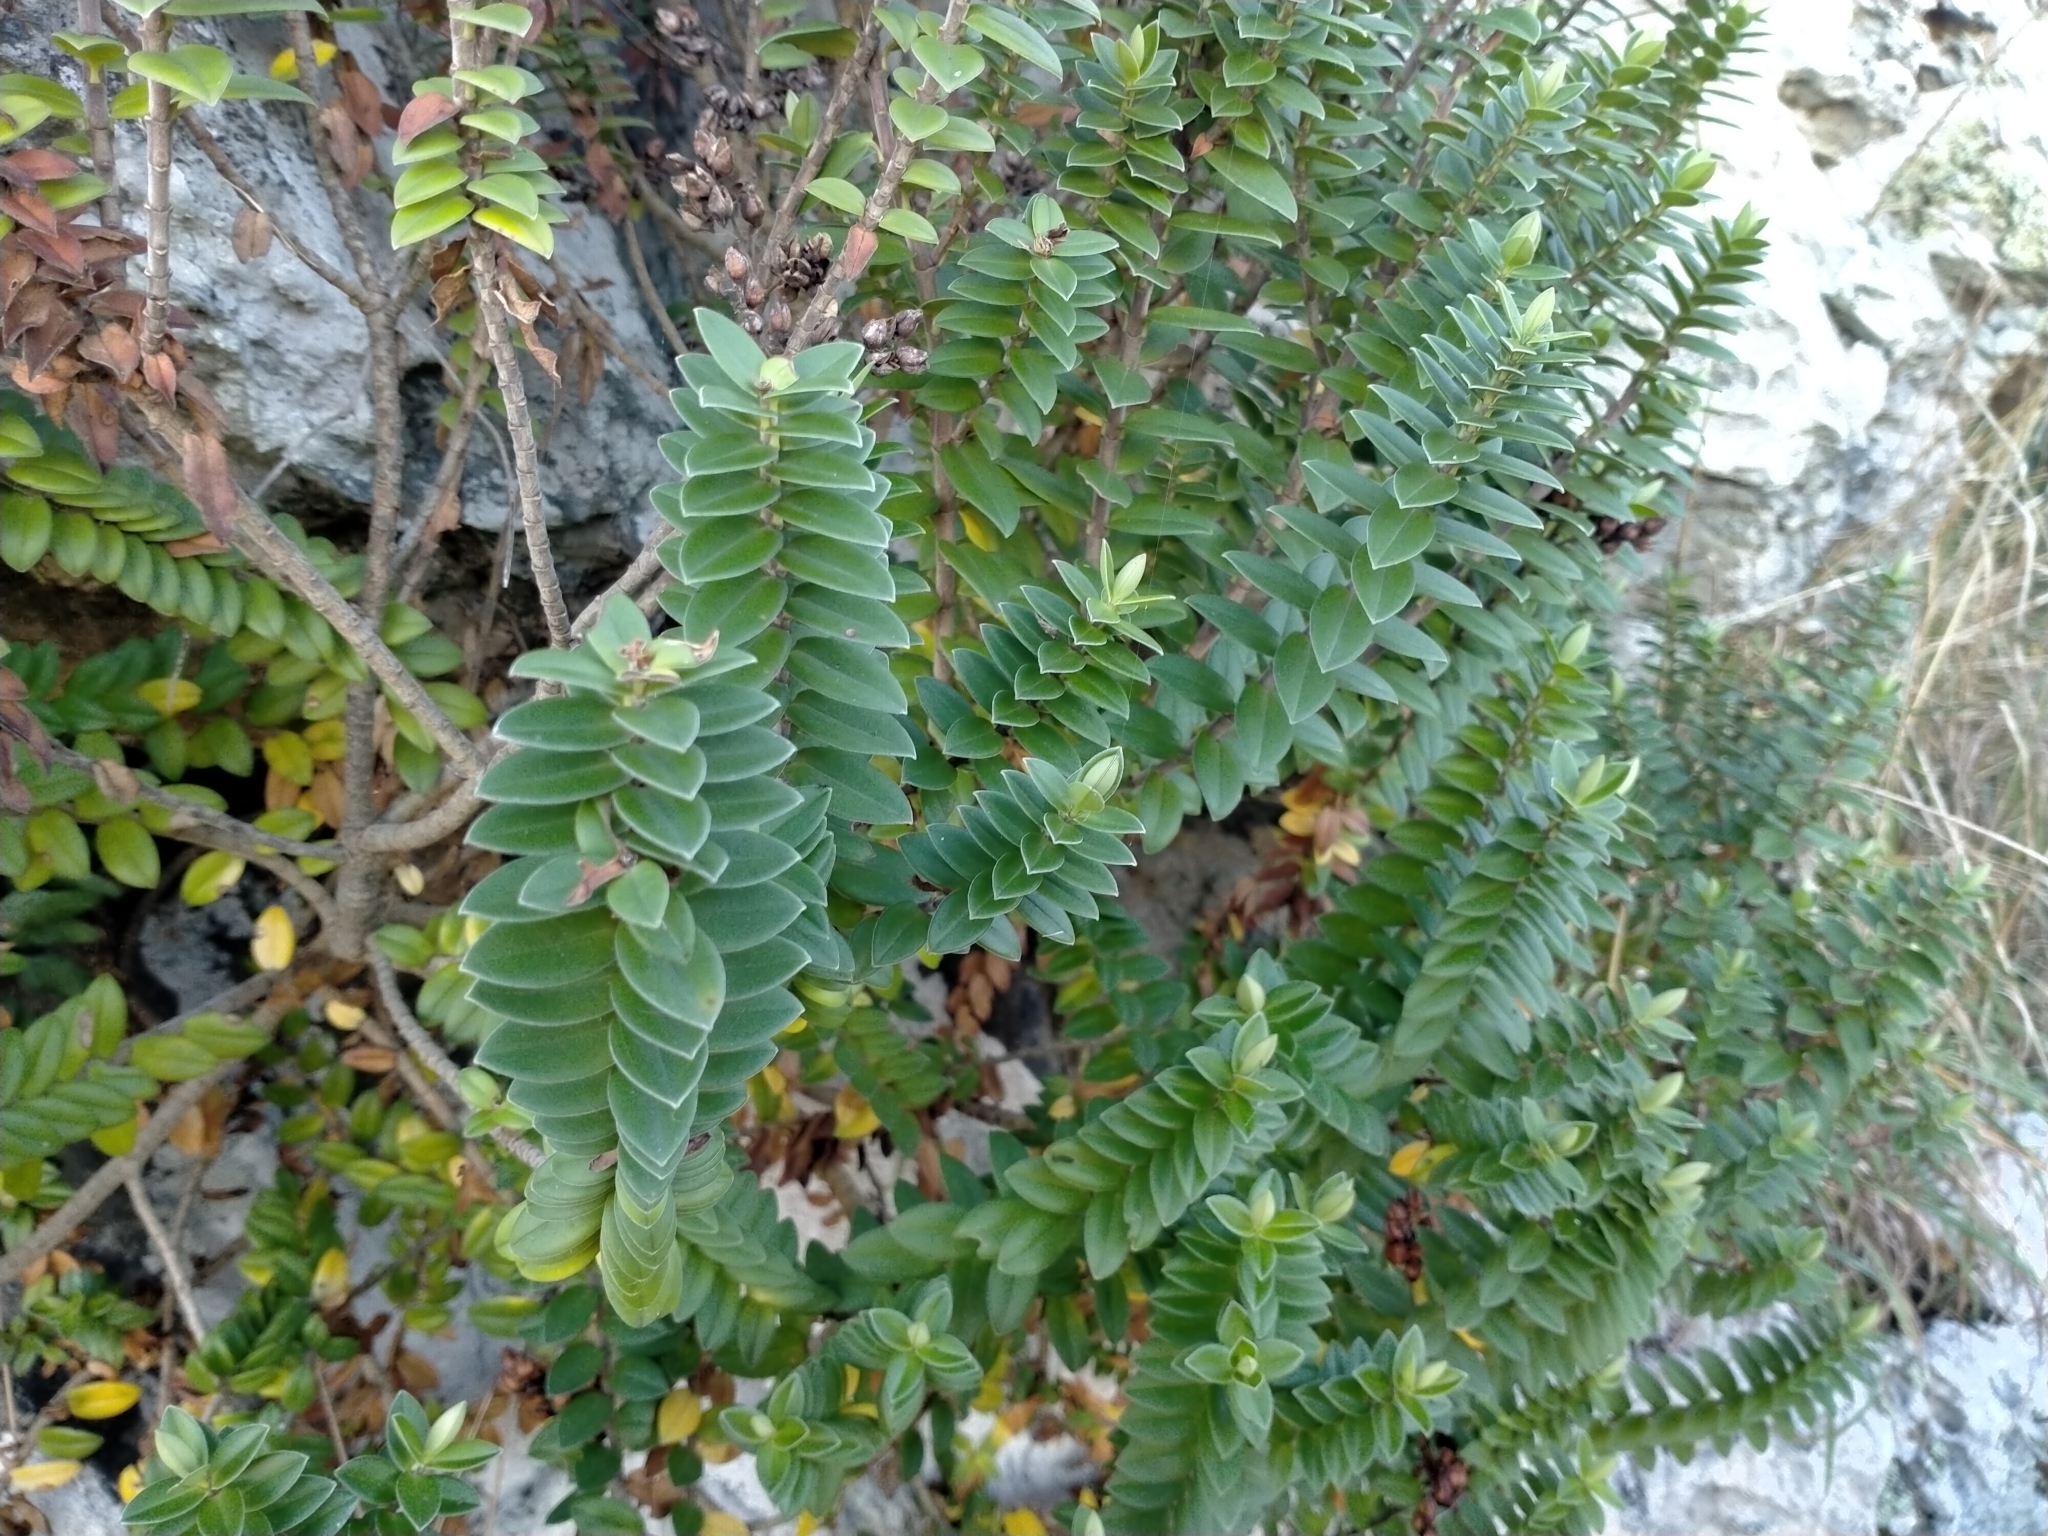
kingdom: Plantae
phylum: Tracheophyta
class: Magnoliopsida
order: Lamiales
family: Plantaginaceae
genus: Veronica
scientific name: Veronica elliptica
